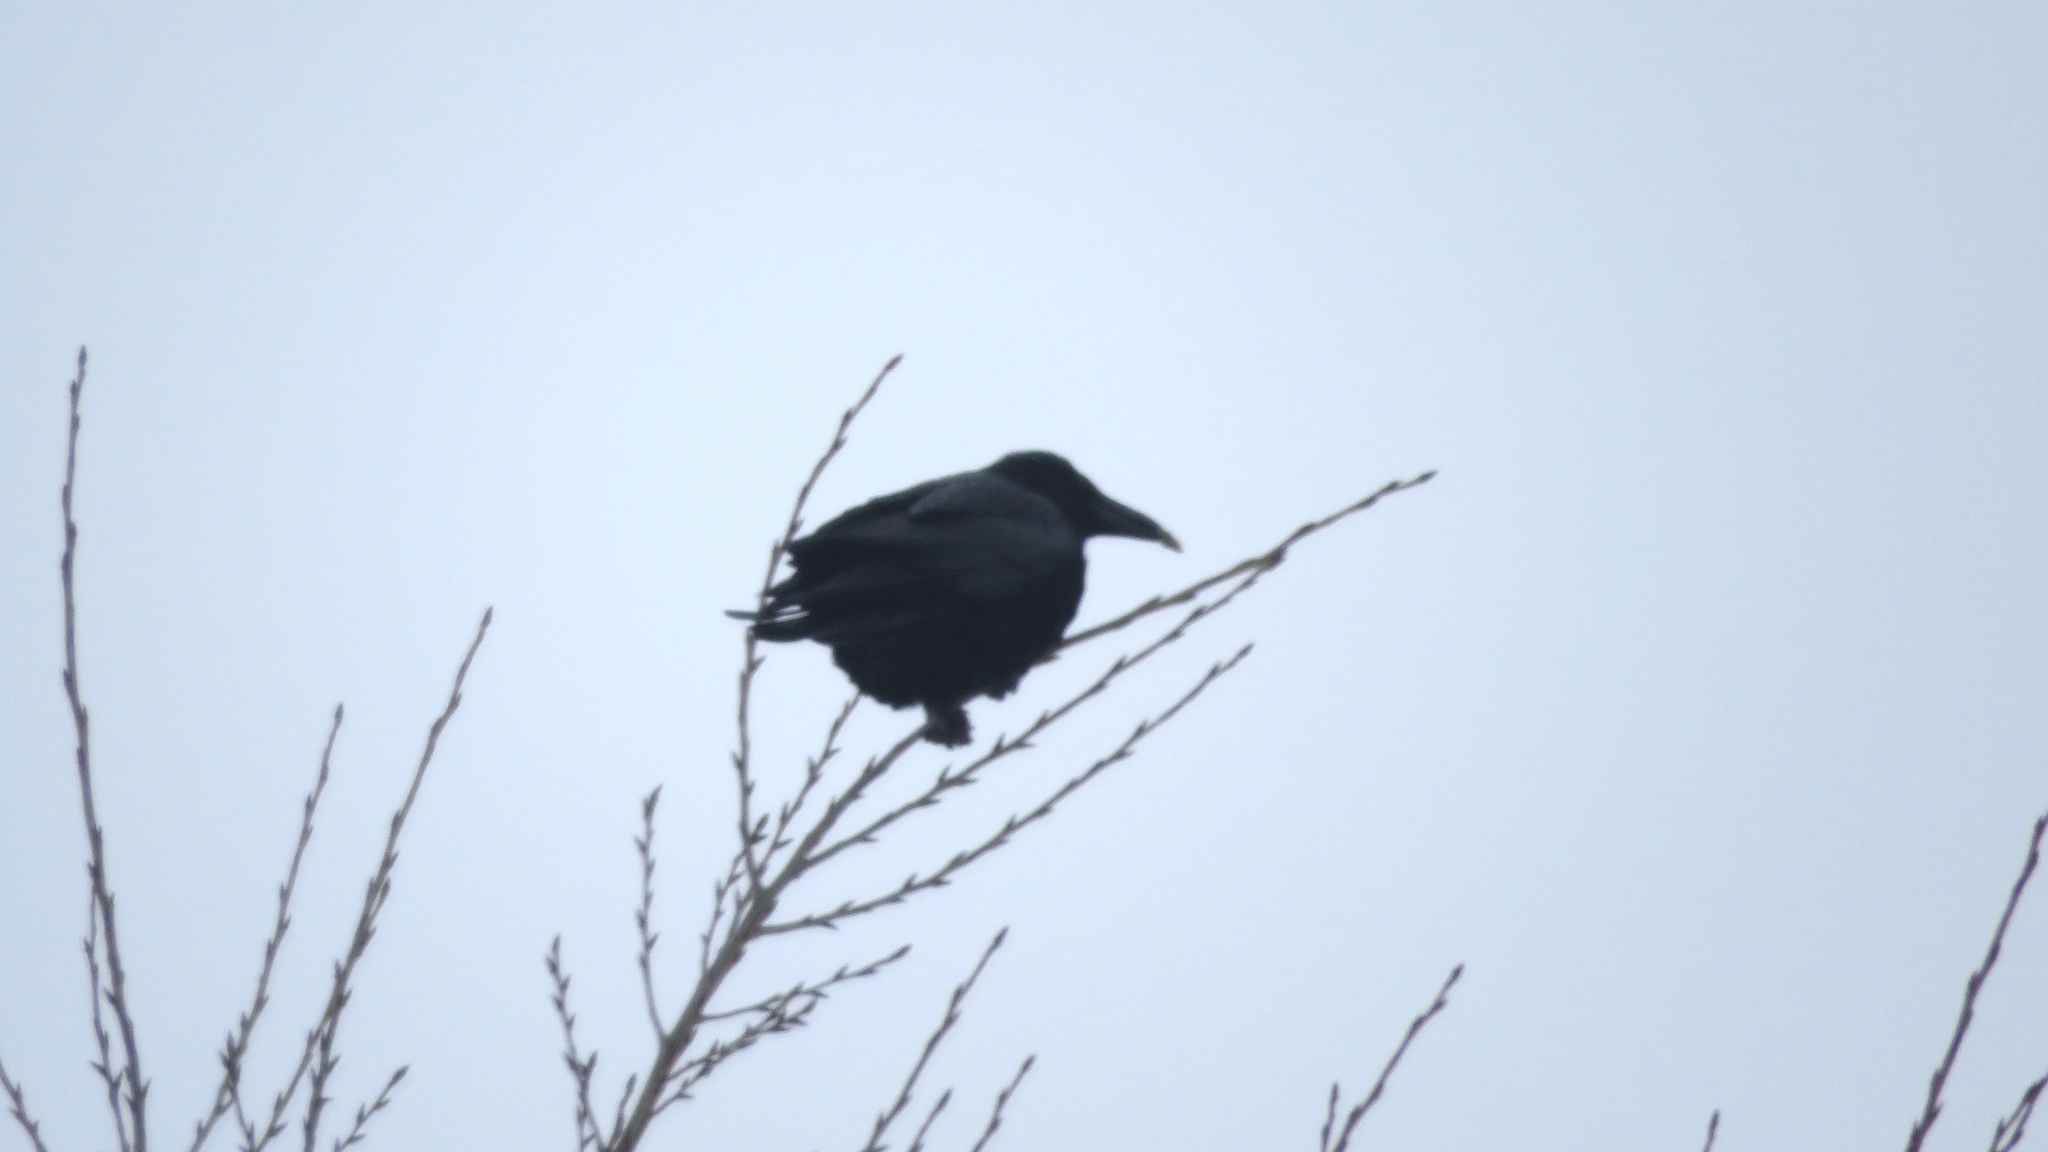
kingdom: Animalia
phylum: Chordata
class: Aves
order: Passeriformes
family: Corvidae
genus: Corvus
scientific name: Corvus corax
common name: Common raven
